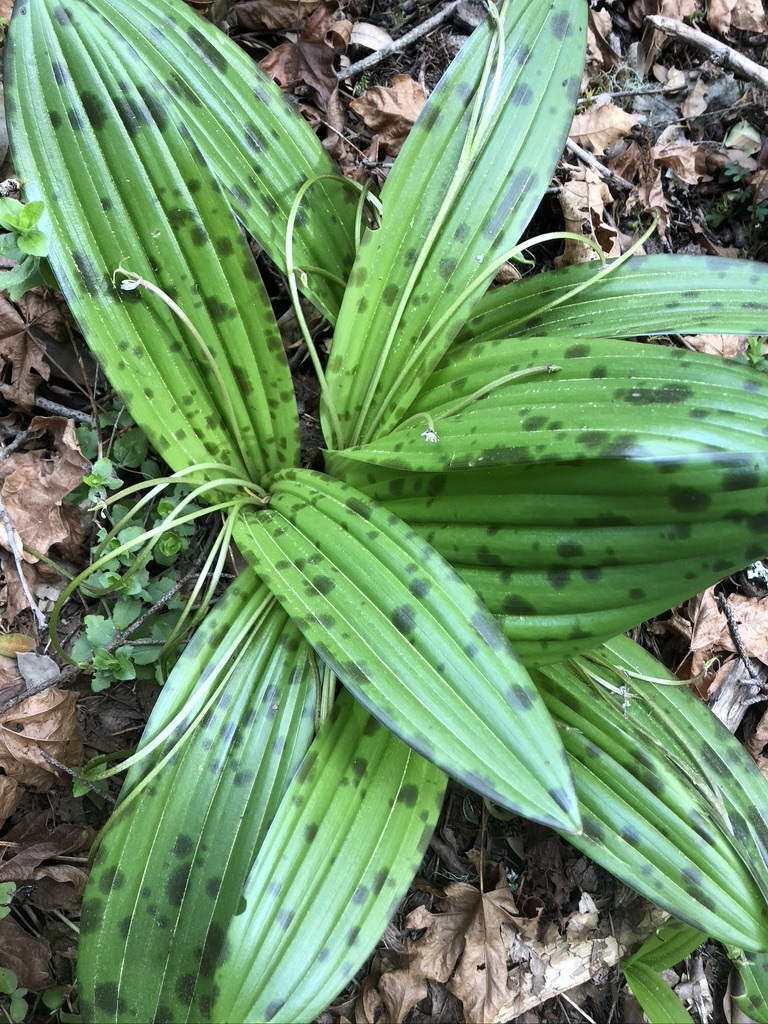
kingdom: Plantae
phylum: Tracheophyta
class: Liliopsida
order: Liliales
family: Liliaceae
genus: Scoliopus
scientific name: Scoliopus bigelovii
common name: Foetid adder's-tongue
